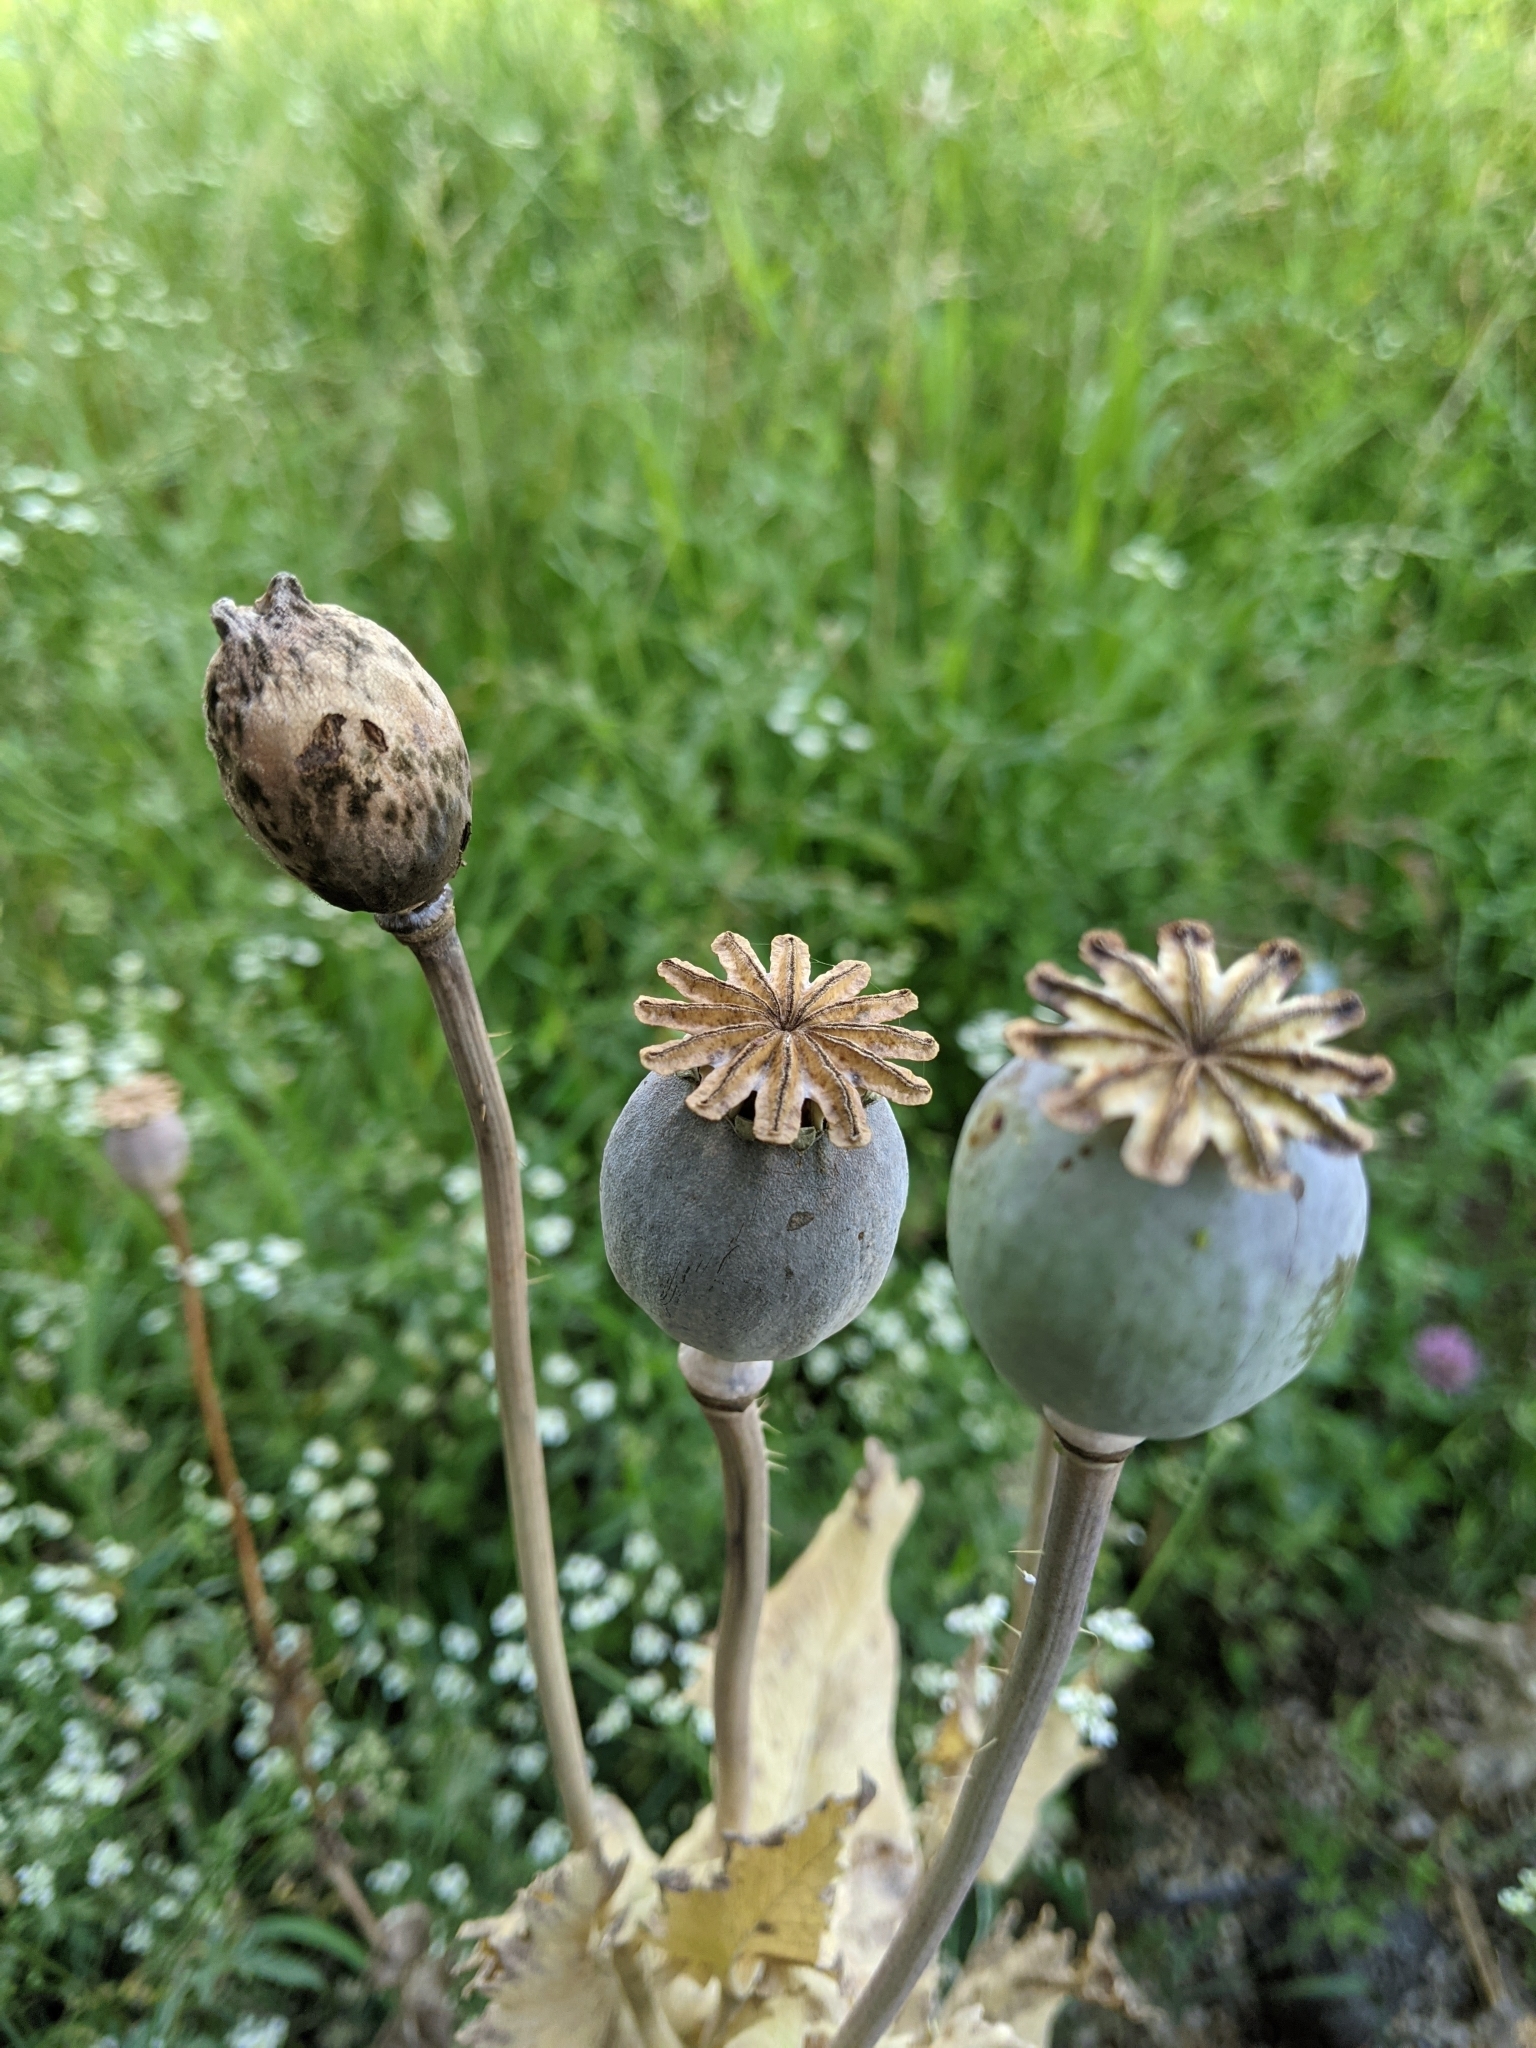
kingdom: Plantae
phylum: Tracheophyta
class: Magnoliopsida
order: Ranunculales
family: Papaveraceae
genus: Papaver
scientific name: Papaver somniferum
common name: Opium poppy
